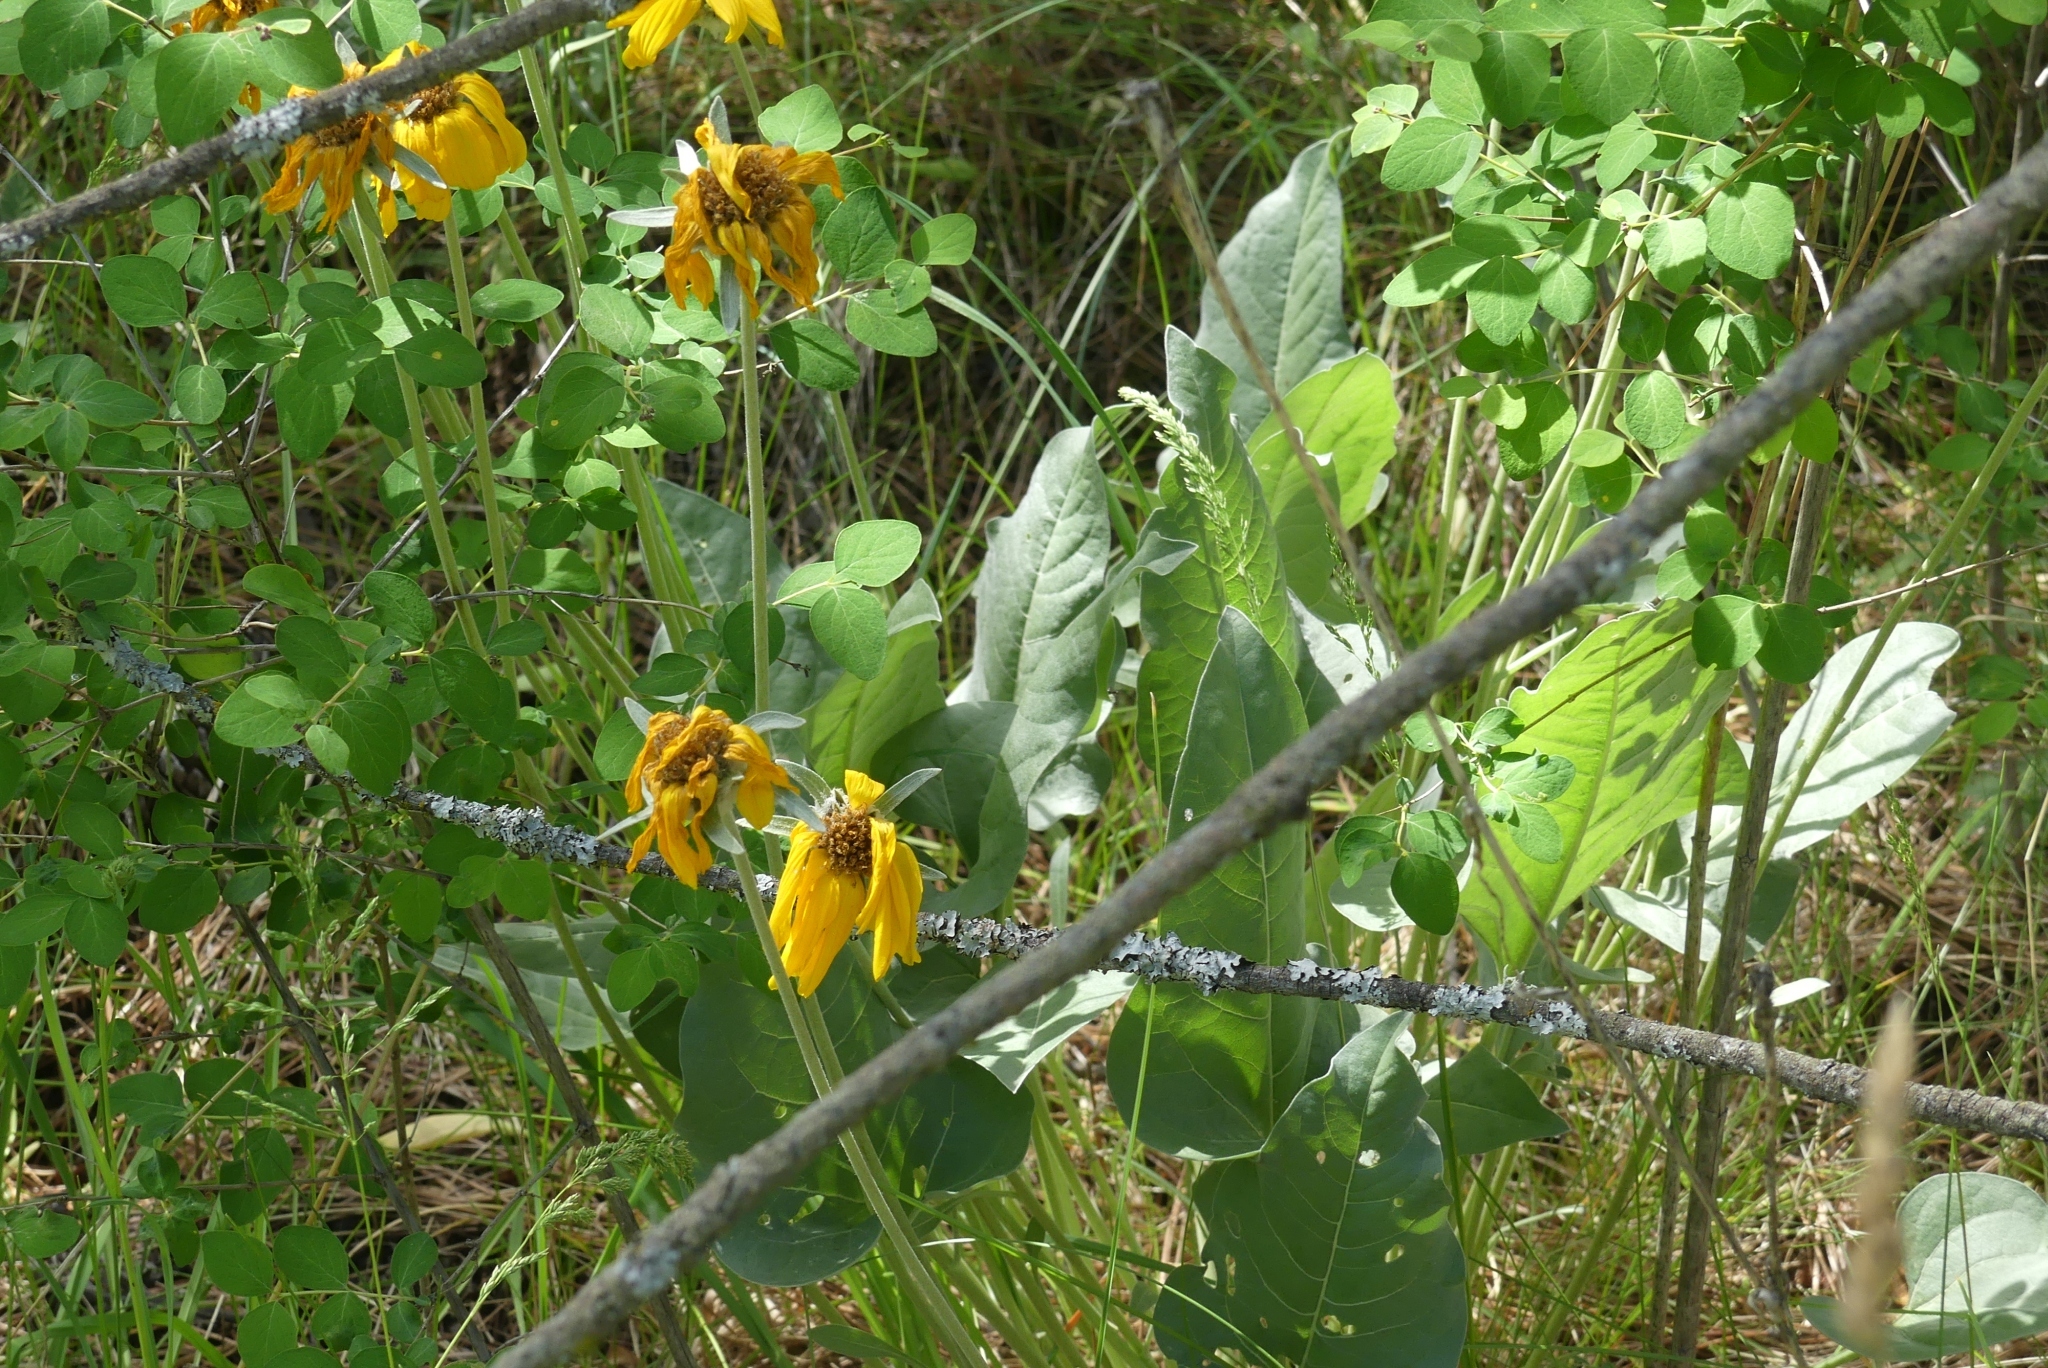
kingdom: Plantae
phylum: Tracheophyta
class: Magnoliopsida
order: Asterales
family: Asteraceae
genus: Wyethia
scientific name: Wyethia sagittata
